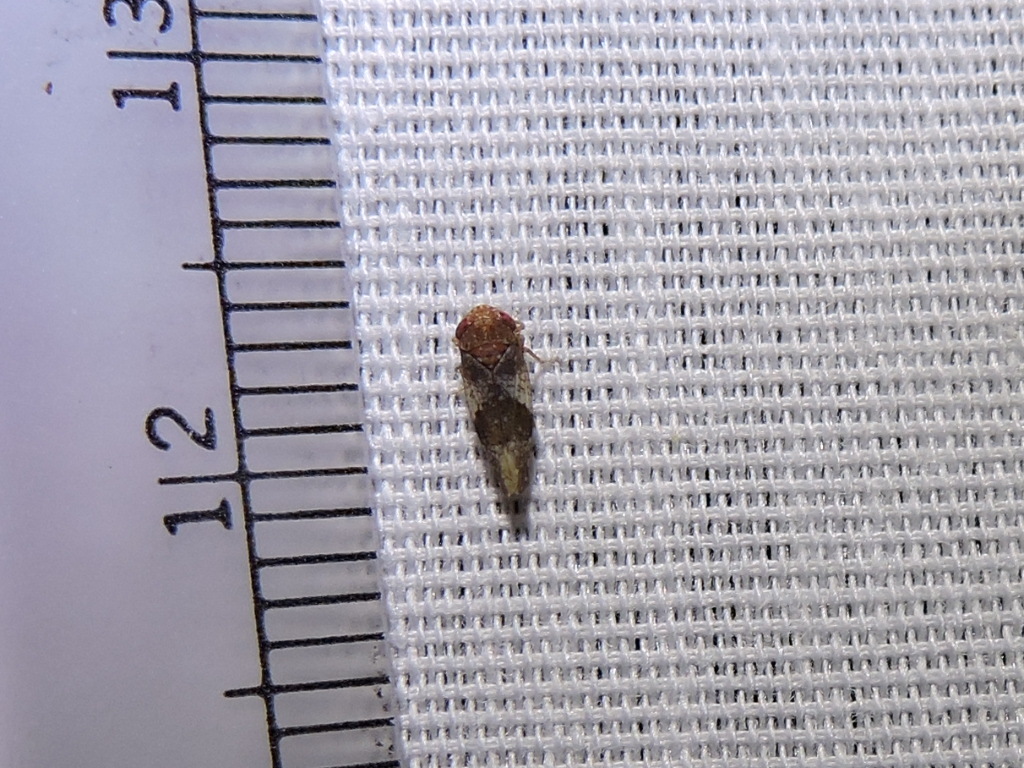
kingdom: Animalia
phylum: Arthropoda
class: Insecta
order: Hemiptera
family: Cicadellidae
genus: Norvellina
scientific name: Norvellina helenae
